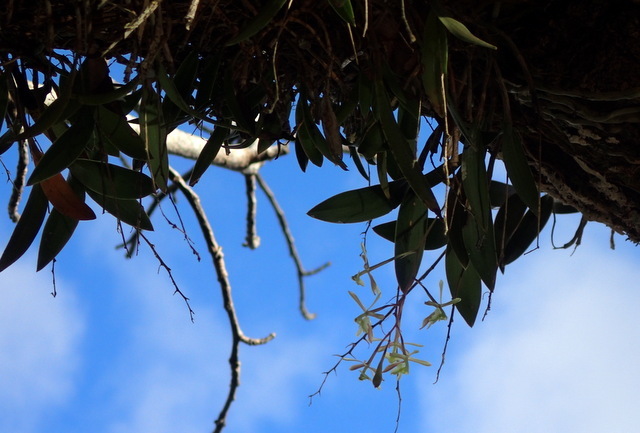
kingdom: Plantae
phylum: Tracheophyta
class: Liliopsida
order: Asparagales
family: Orchidaceae
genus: Epidendrum
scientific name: Epidendrum conopseum
